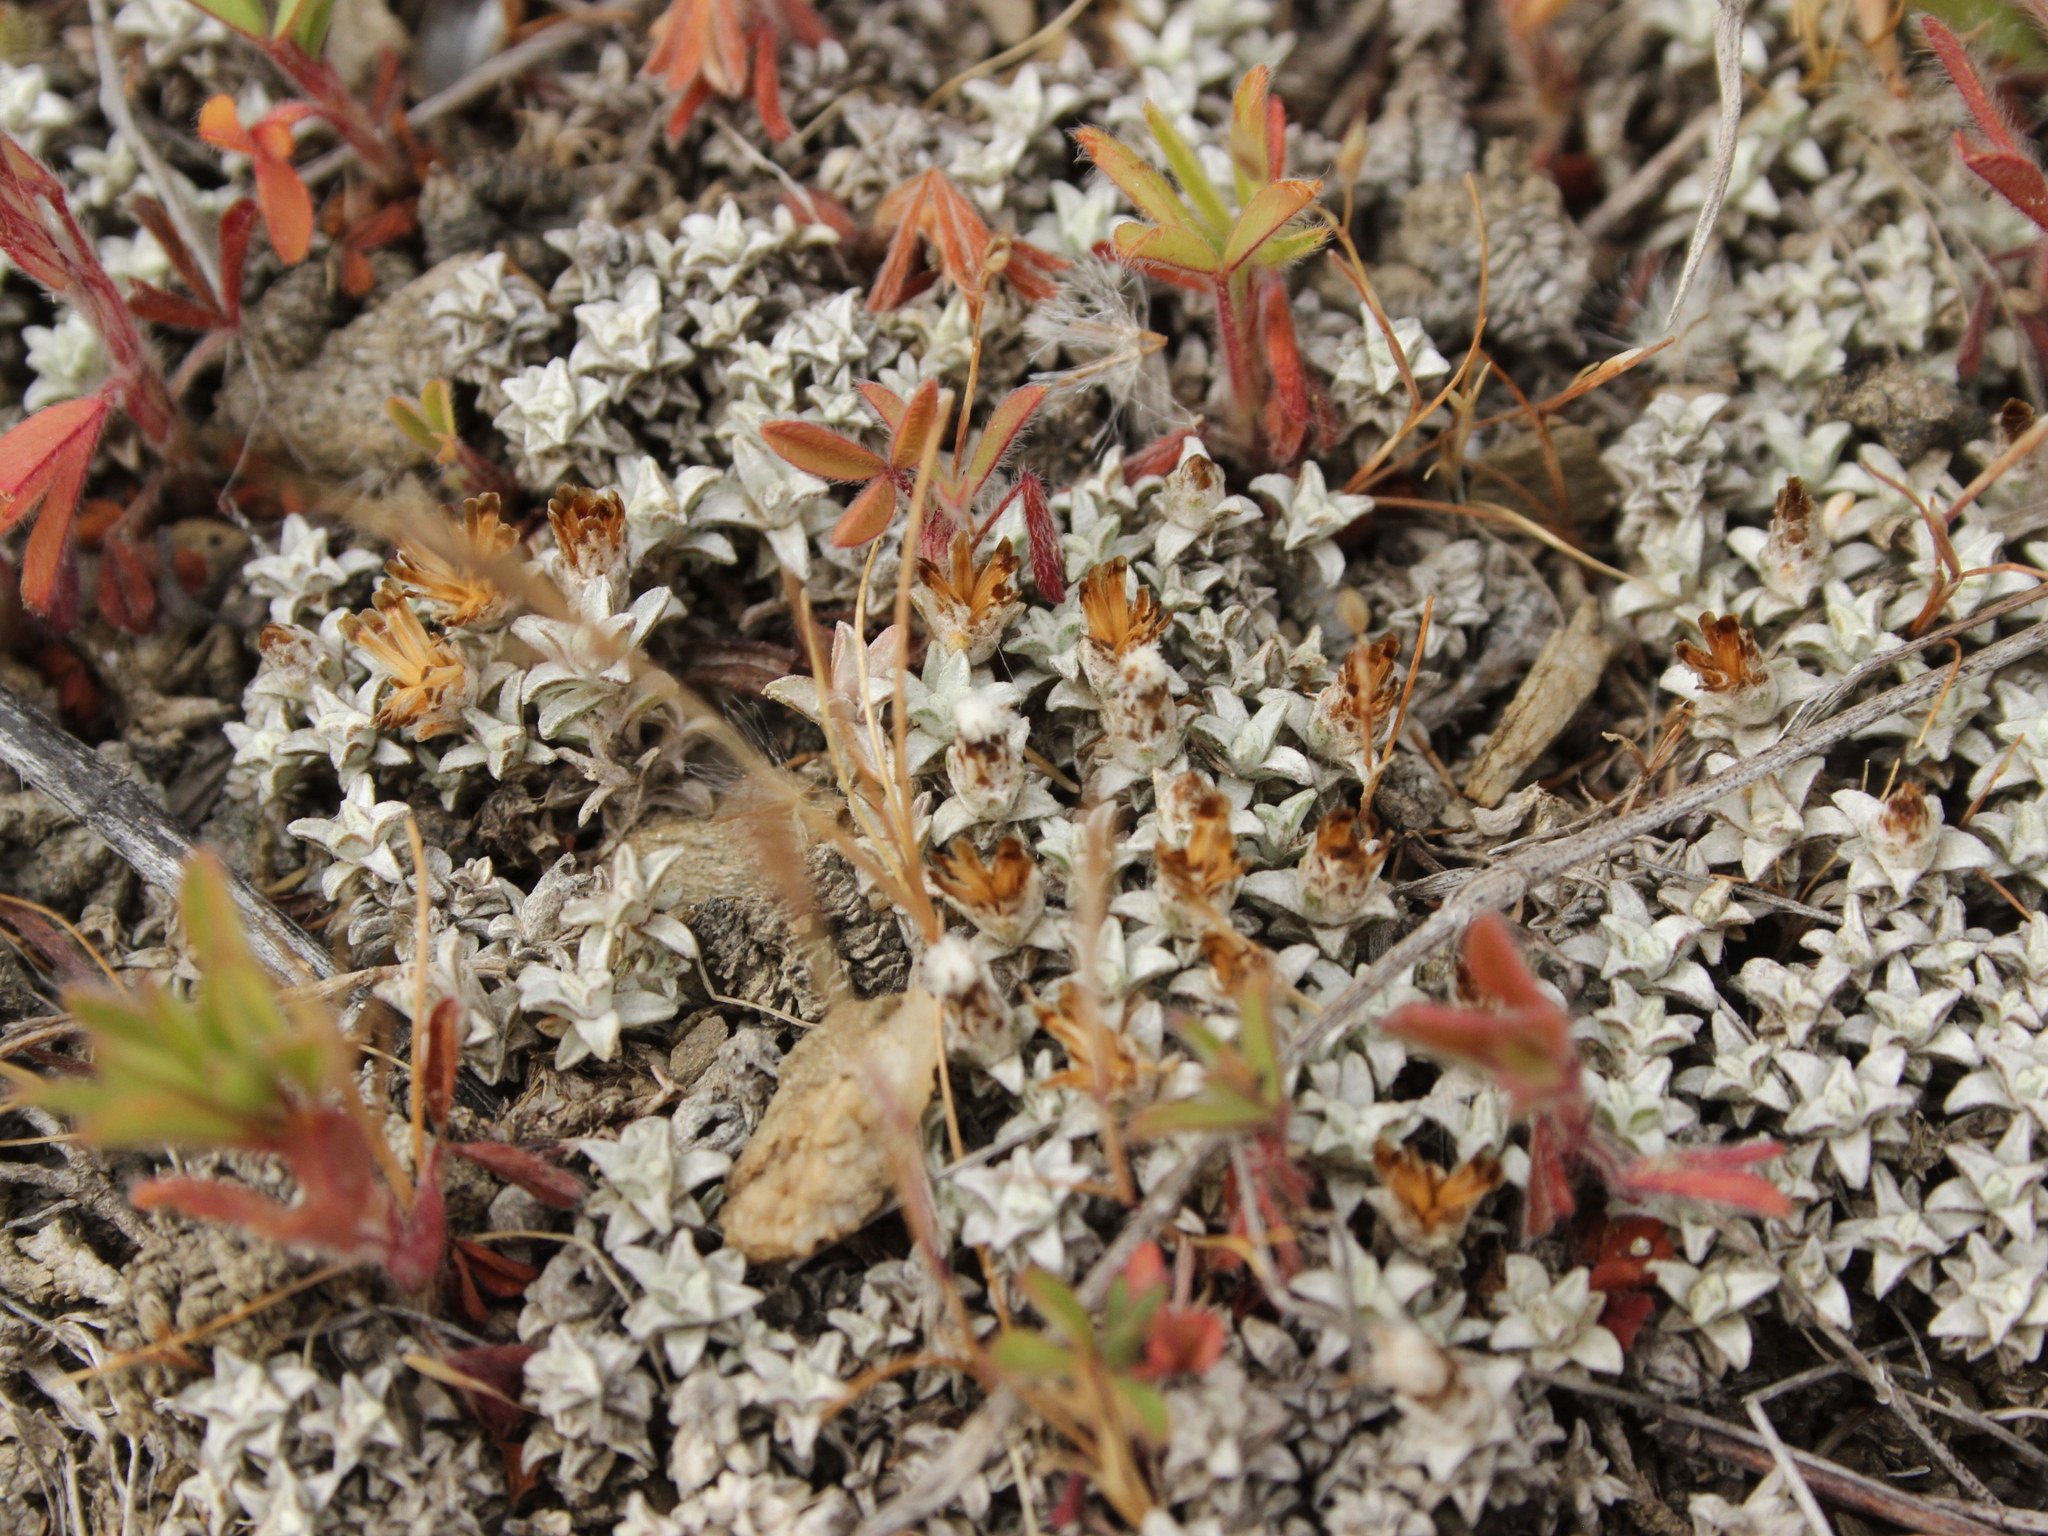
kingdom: Plantae
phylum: Tracheophyta
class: Magnoliopsida
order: Asterales
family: Asteraceae
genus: Raoulia
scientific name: Raoulia beauverdii
